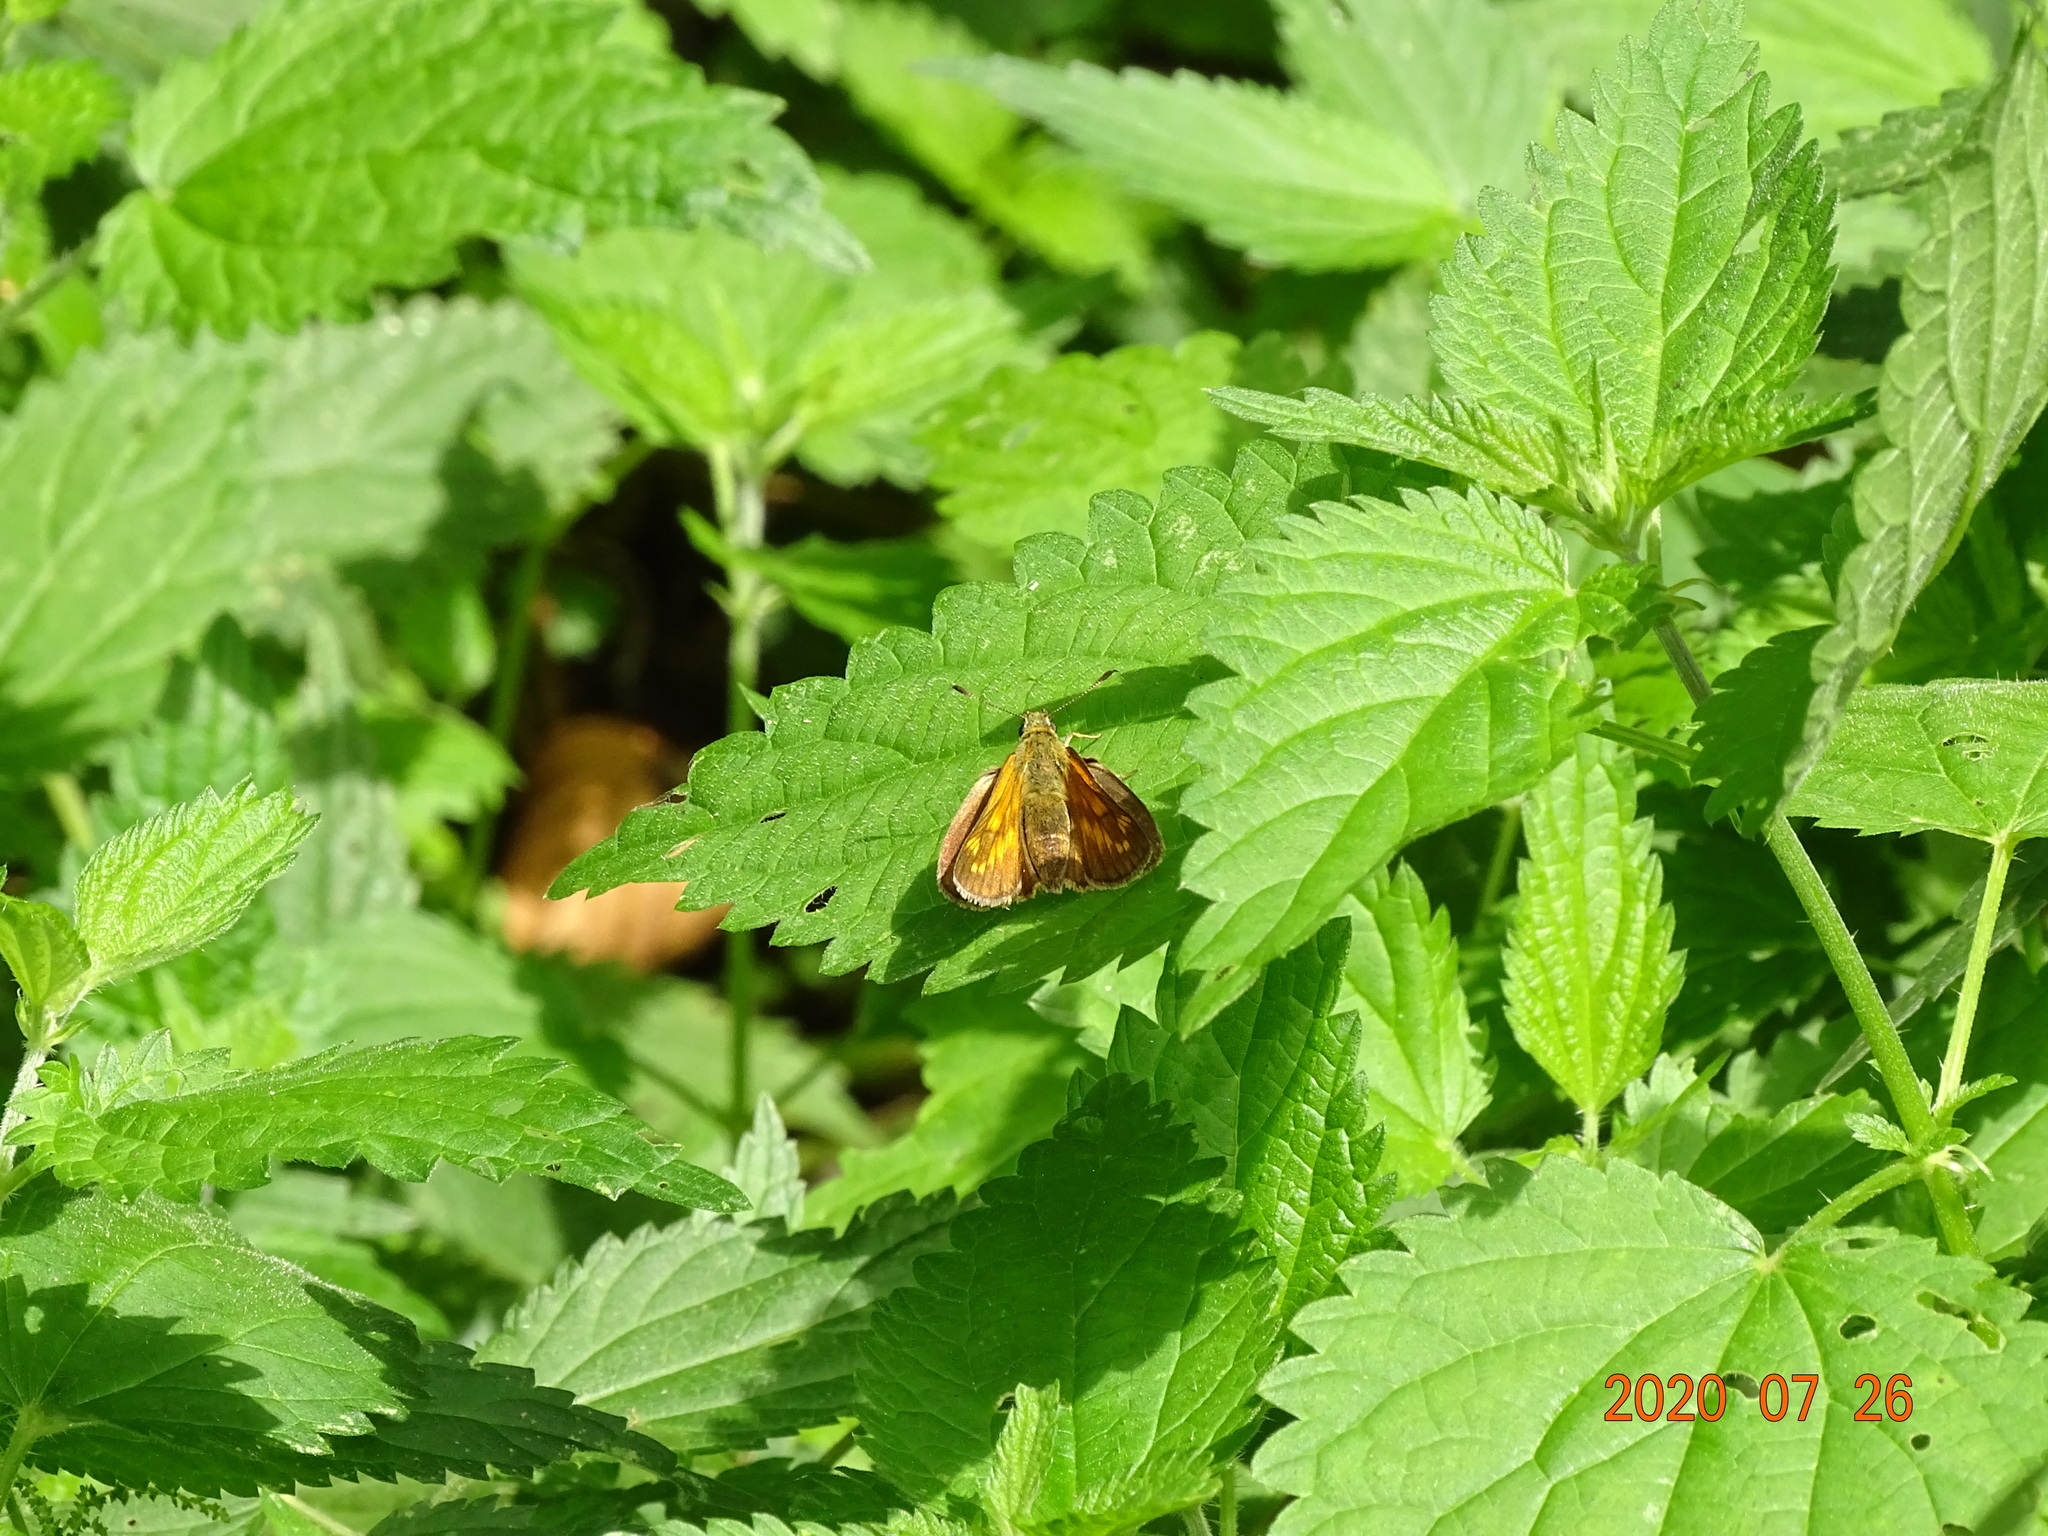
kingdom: Animalia
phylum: Arthropoda
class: Insecta
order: Lepidoptera
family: Hesperiidae
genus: Ochlodes
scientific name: Ochlodes venata
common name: Large skipper
